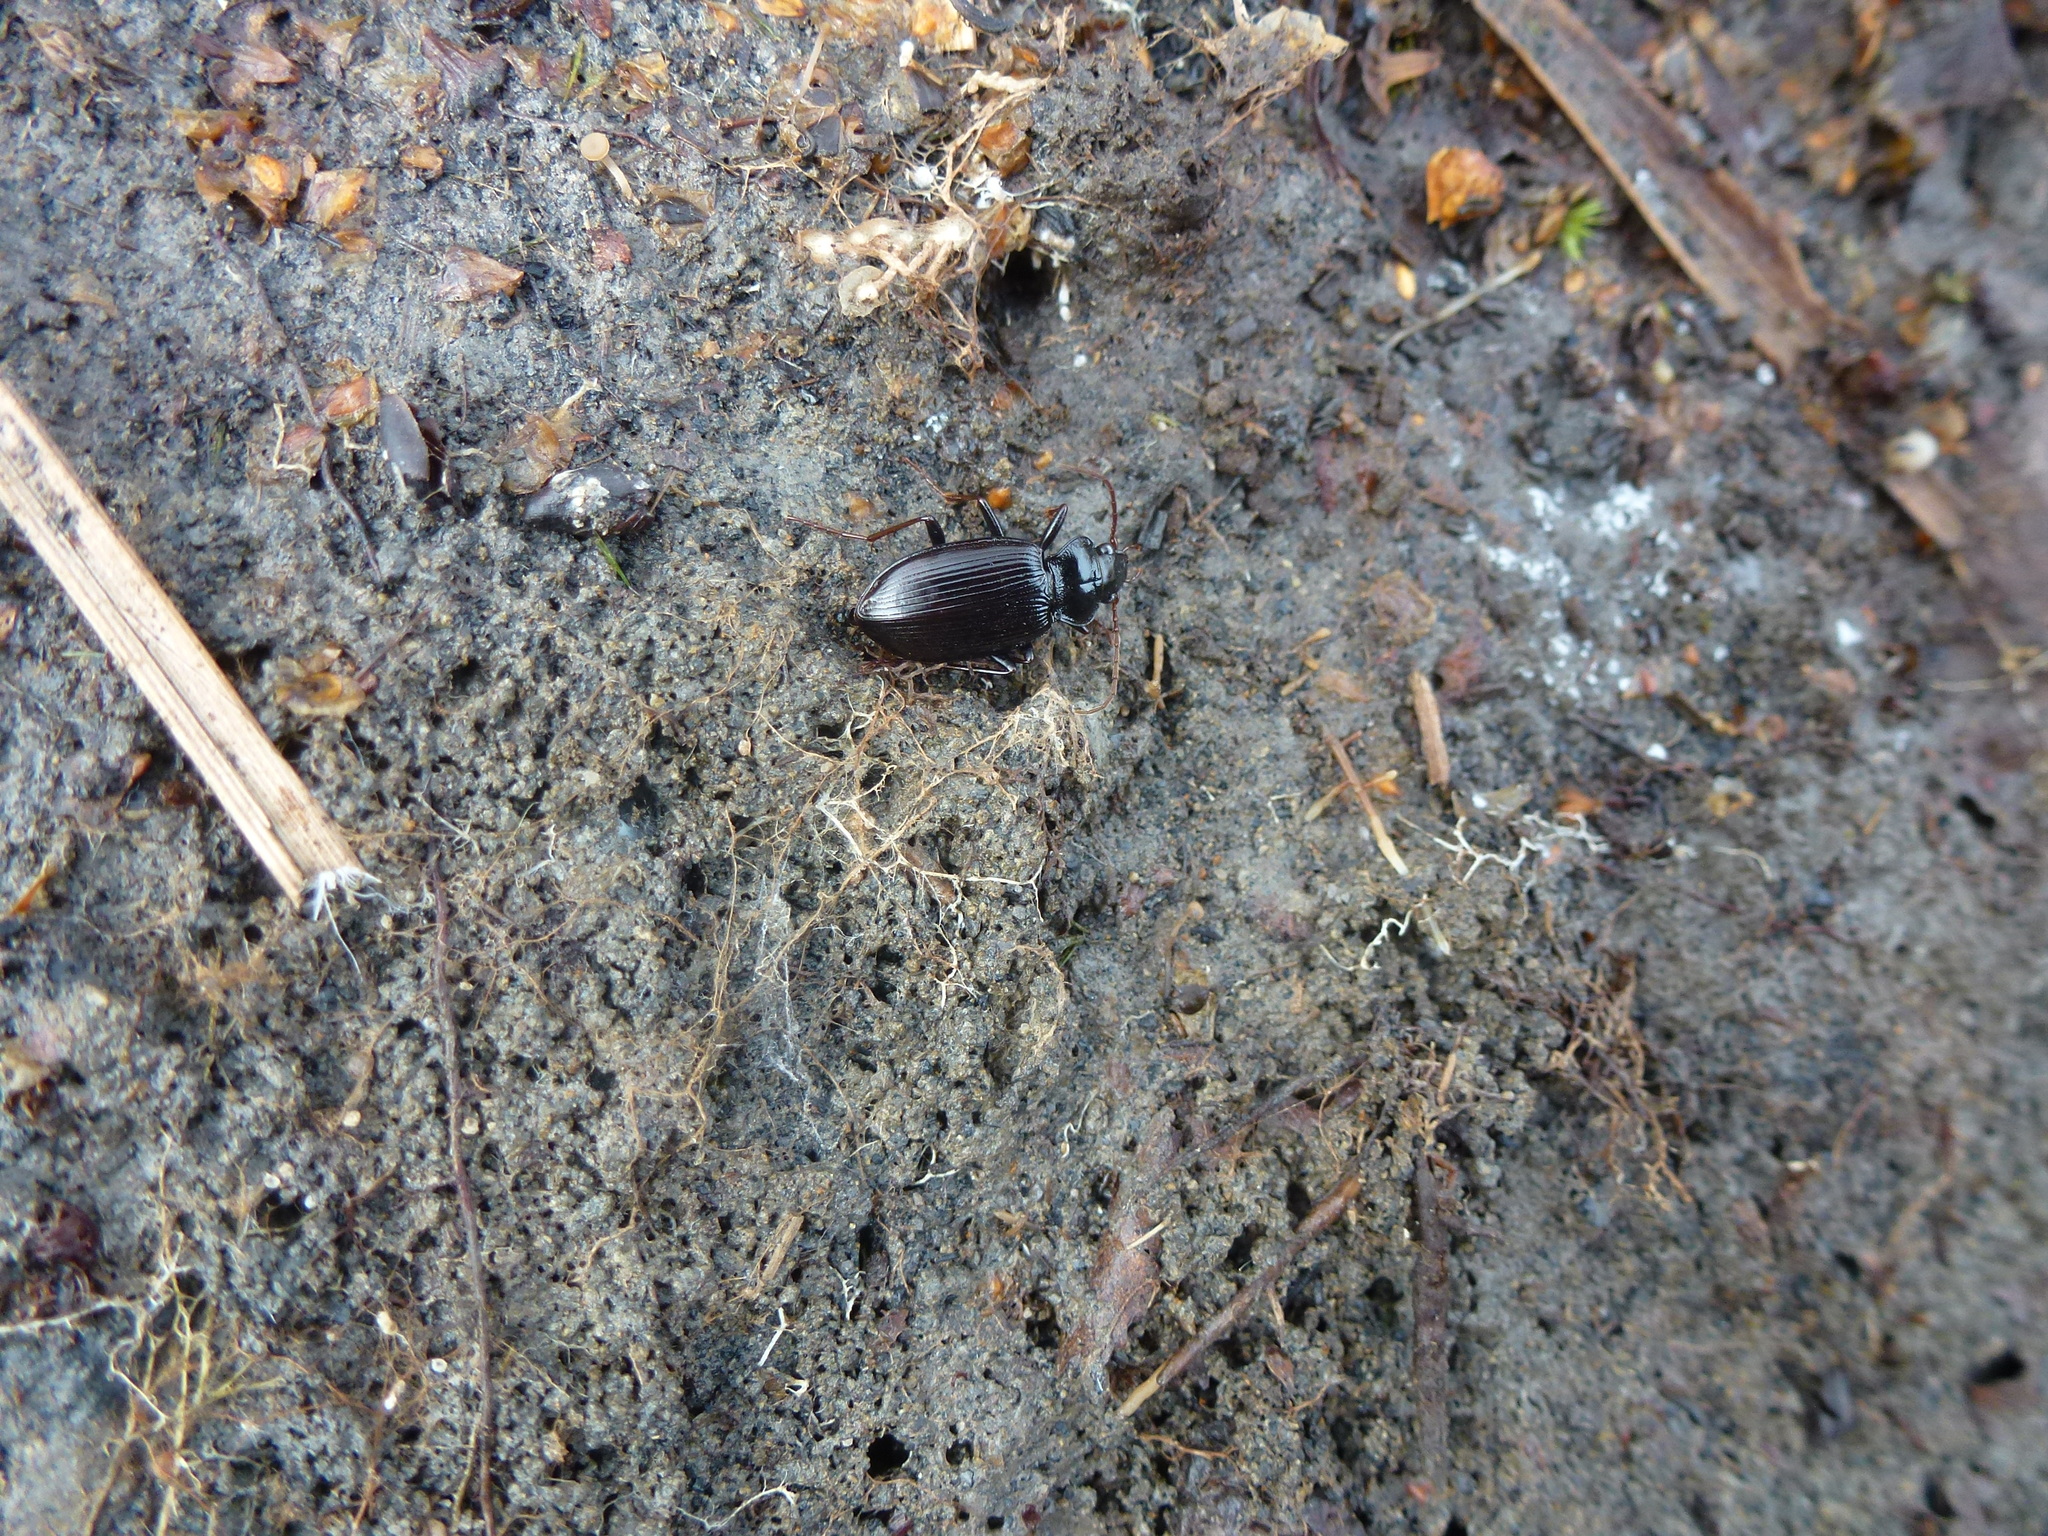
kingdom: Animalia
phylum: Arthropoda
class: Insecta
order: Coleoptera
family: Carabidae
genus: Nebria
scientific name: Nebria brevicollis
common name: Short-necked gazelle beetle
